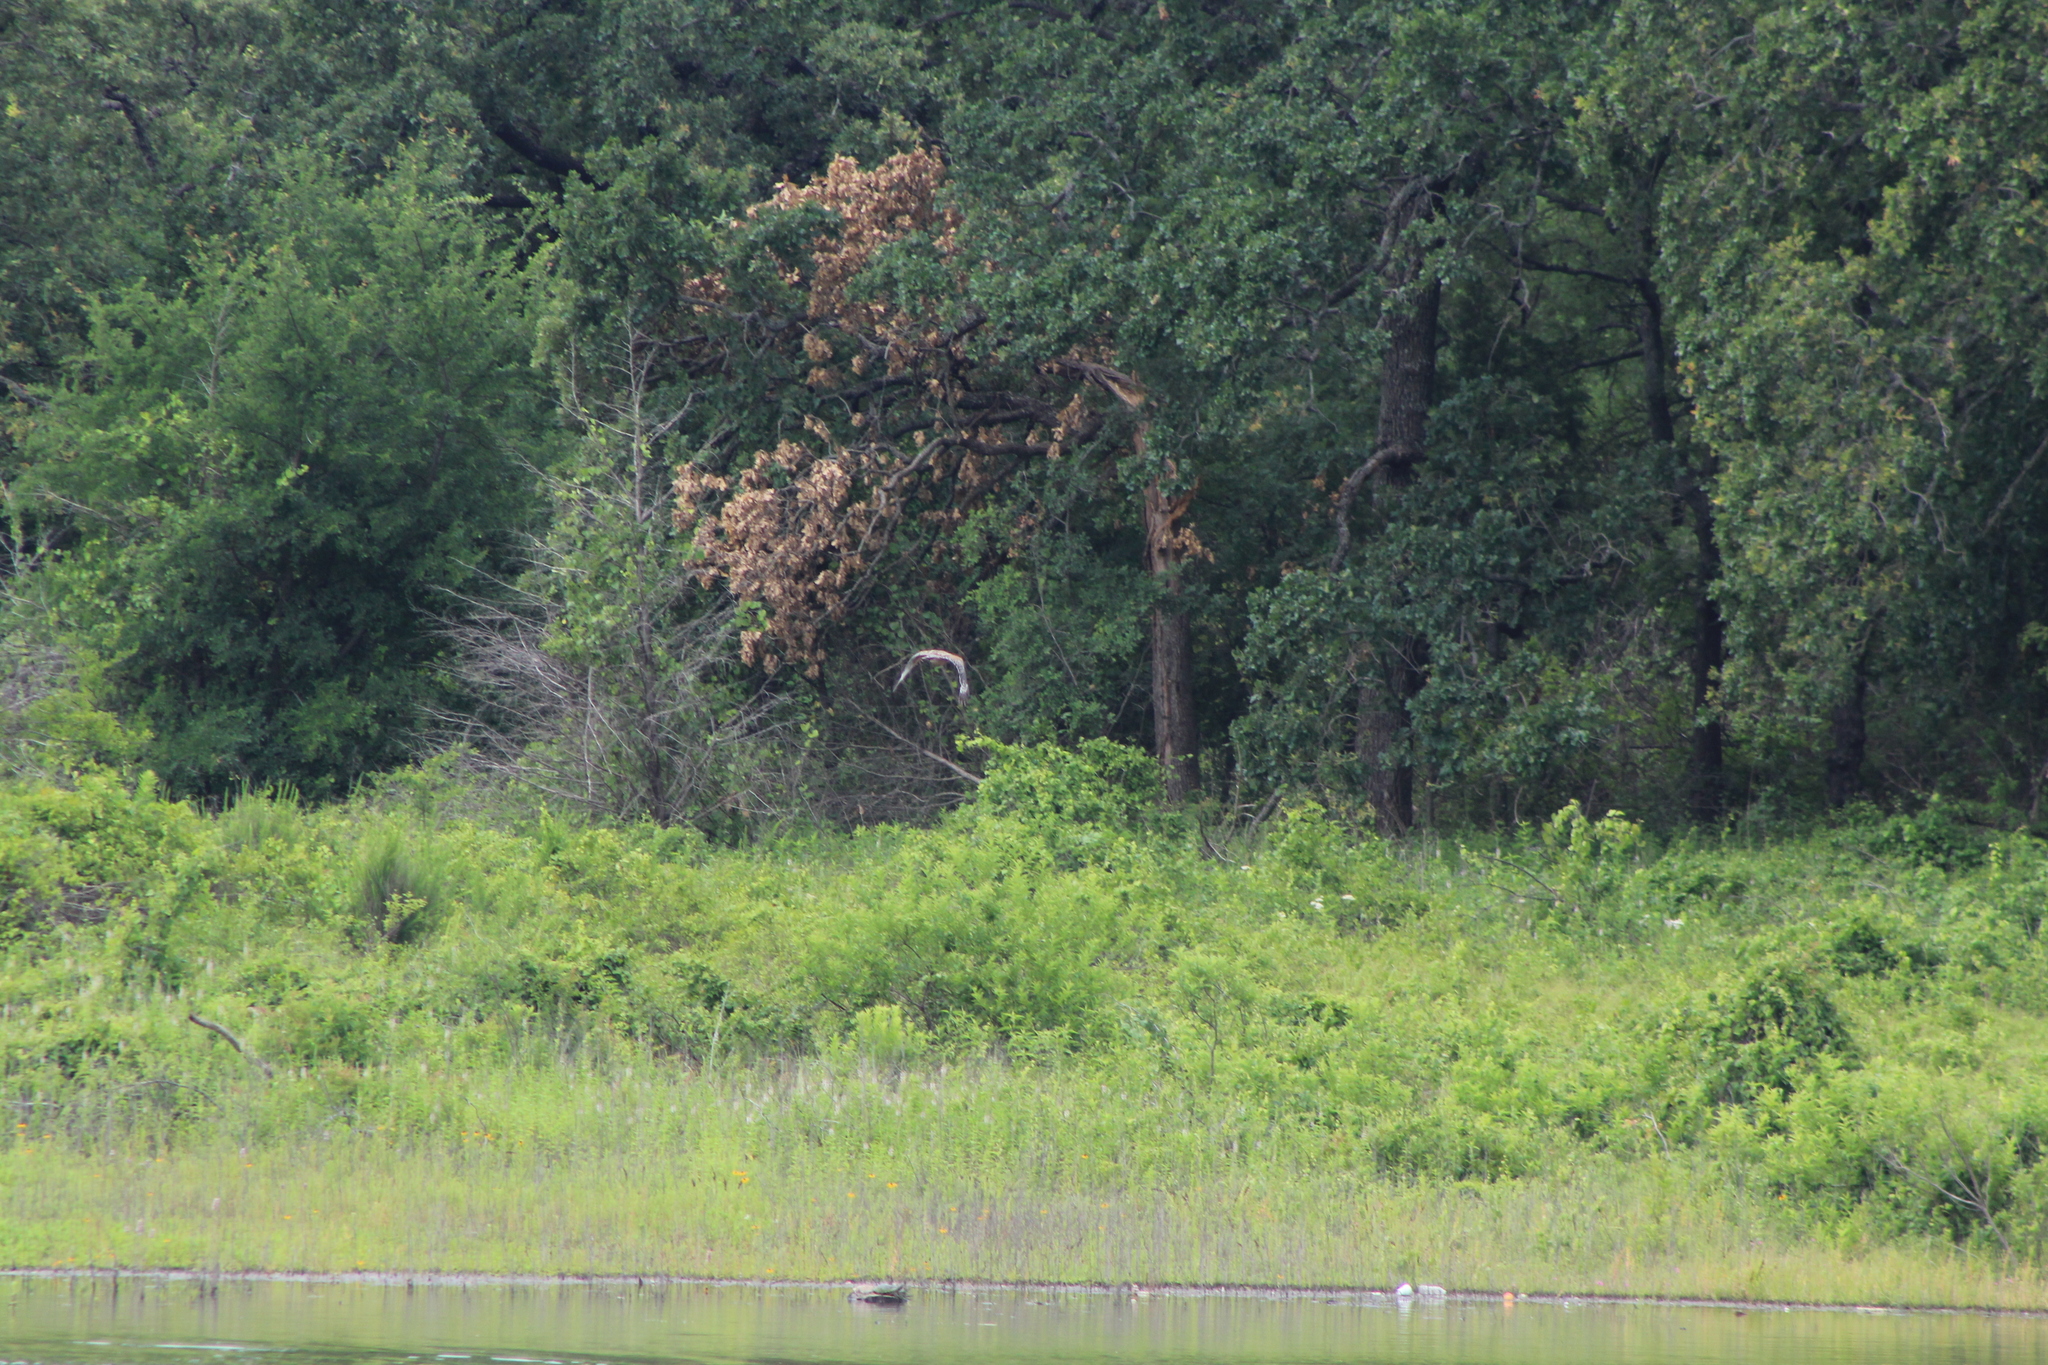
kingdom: Animalia
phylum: Chordata
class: Aves
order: Accipitriformes
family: Accipitridae
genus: Buteo
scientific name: Buteo lineatus
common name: Red-shouldered hawk
